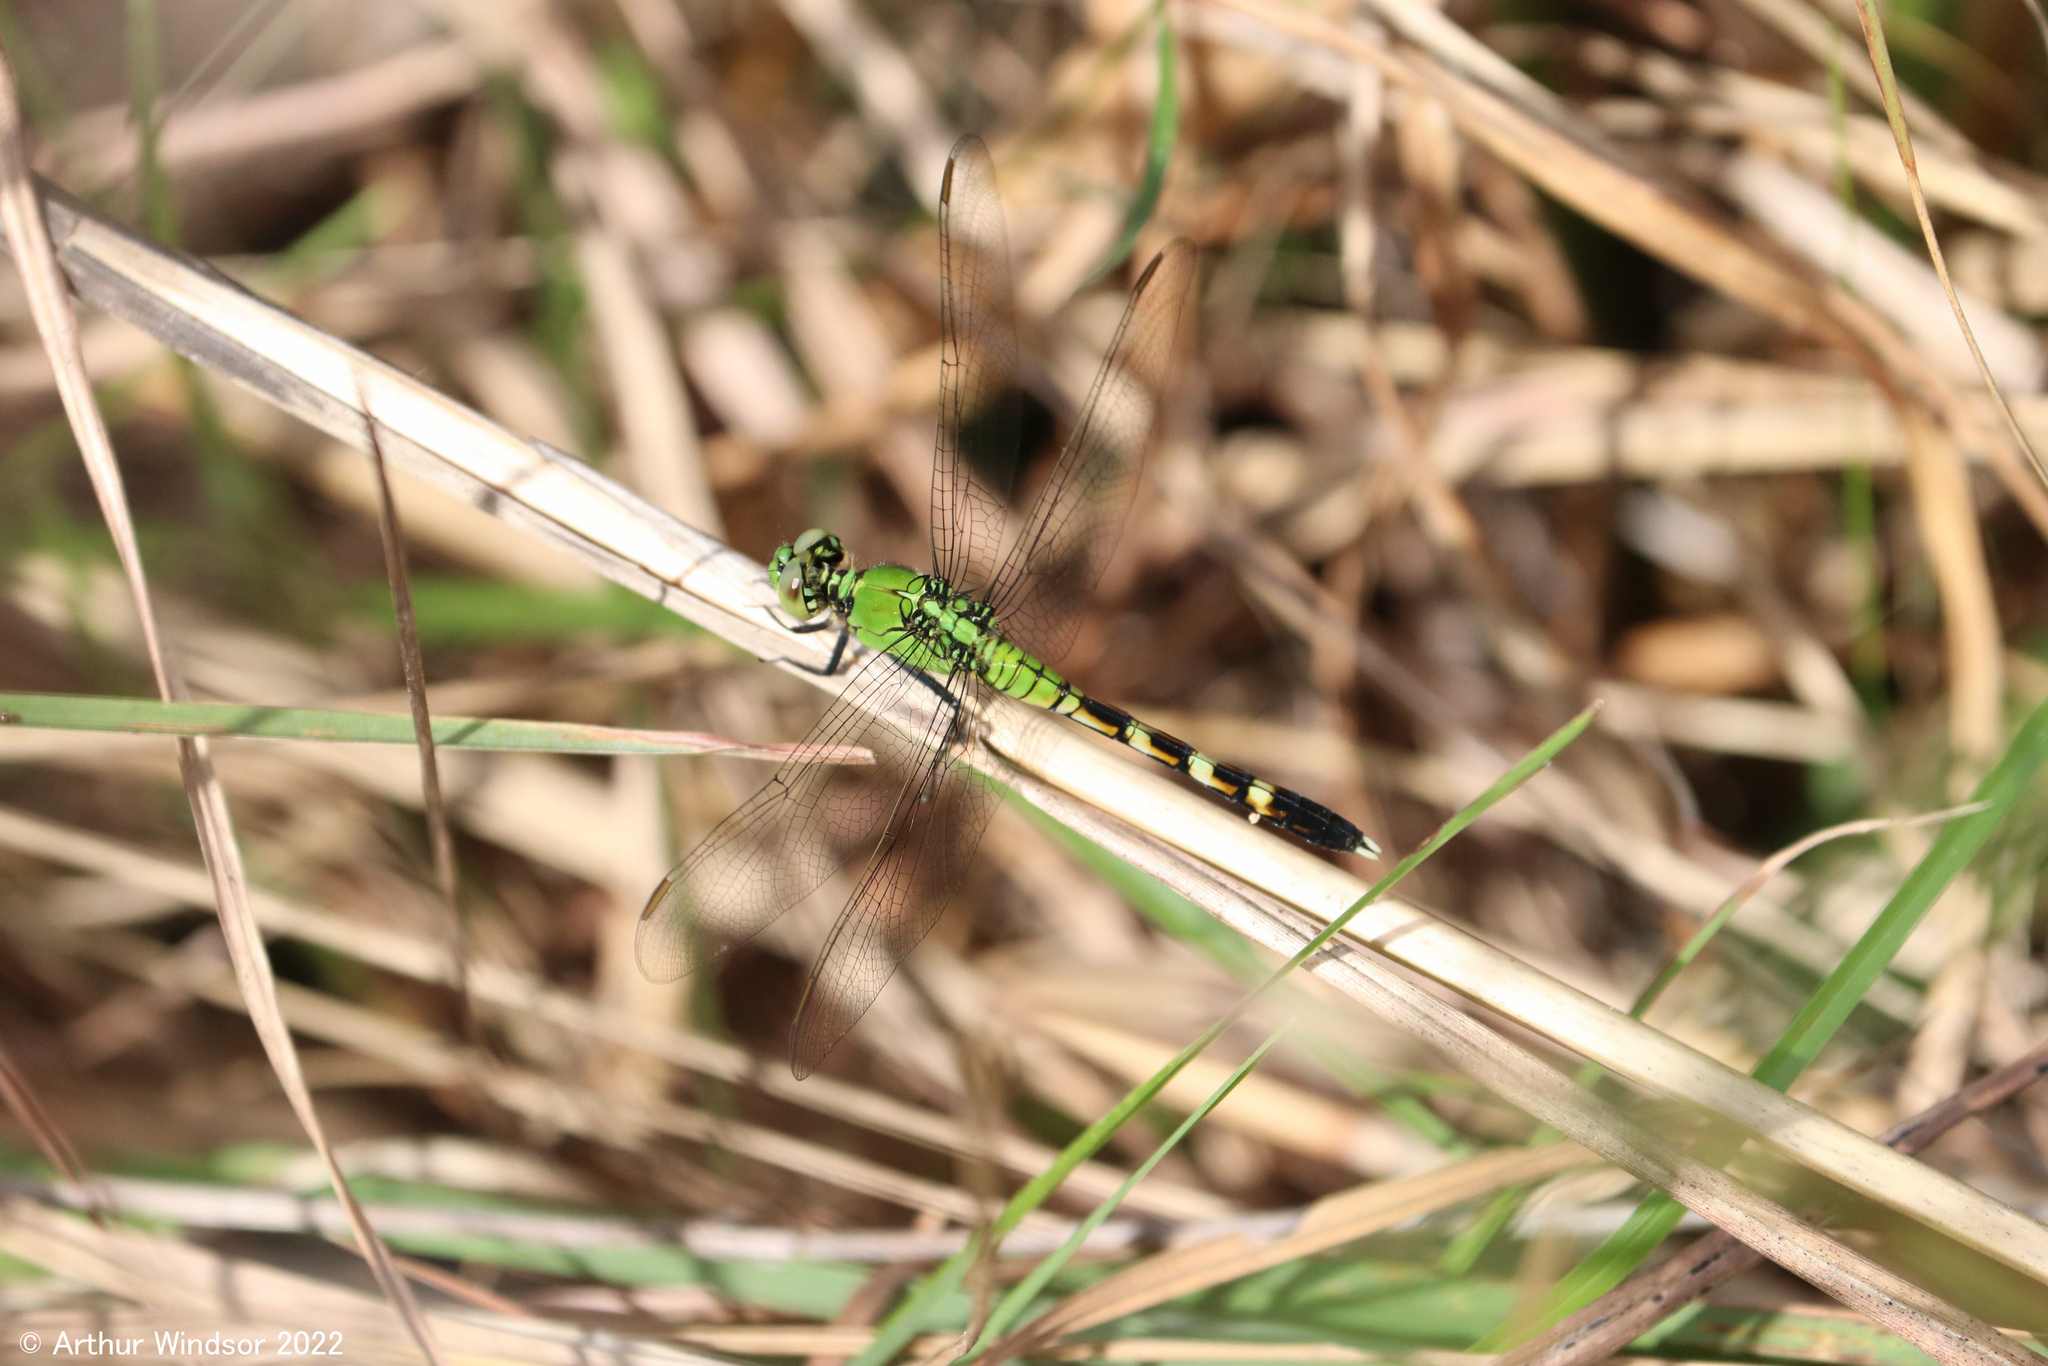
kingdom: Animalia
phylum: Arthropoda
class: Insecta
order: Odonata
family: Libellulidae
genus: Erythemis
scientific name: Erythemis simplicicollis
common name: Eastern pondhawk
